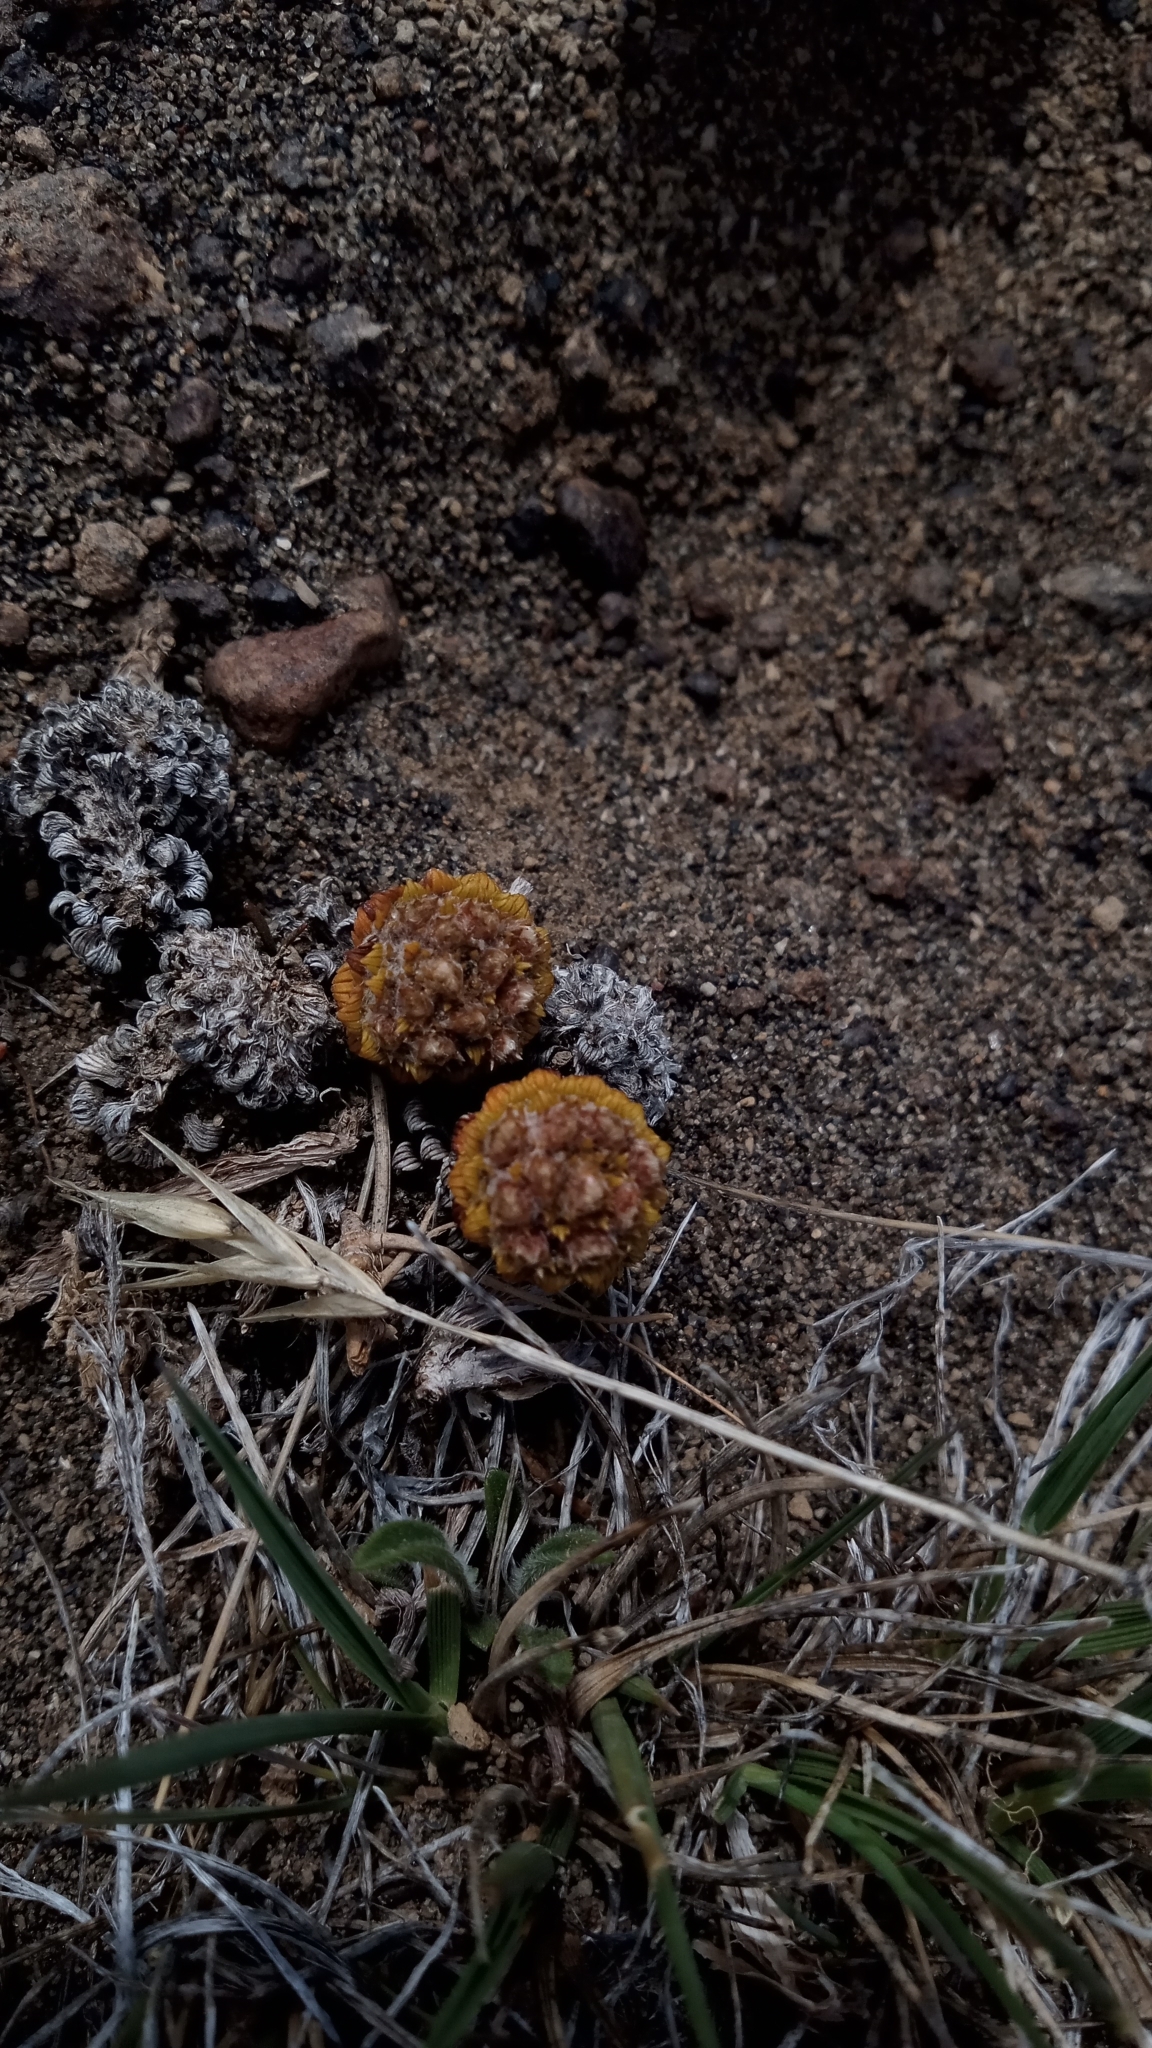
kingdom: Plantae
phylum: Tracheophyta
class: Magnoliopsida
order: Asterales
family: Asteraceae
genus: Nassauvia
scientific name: Nassauvia lagascae
